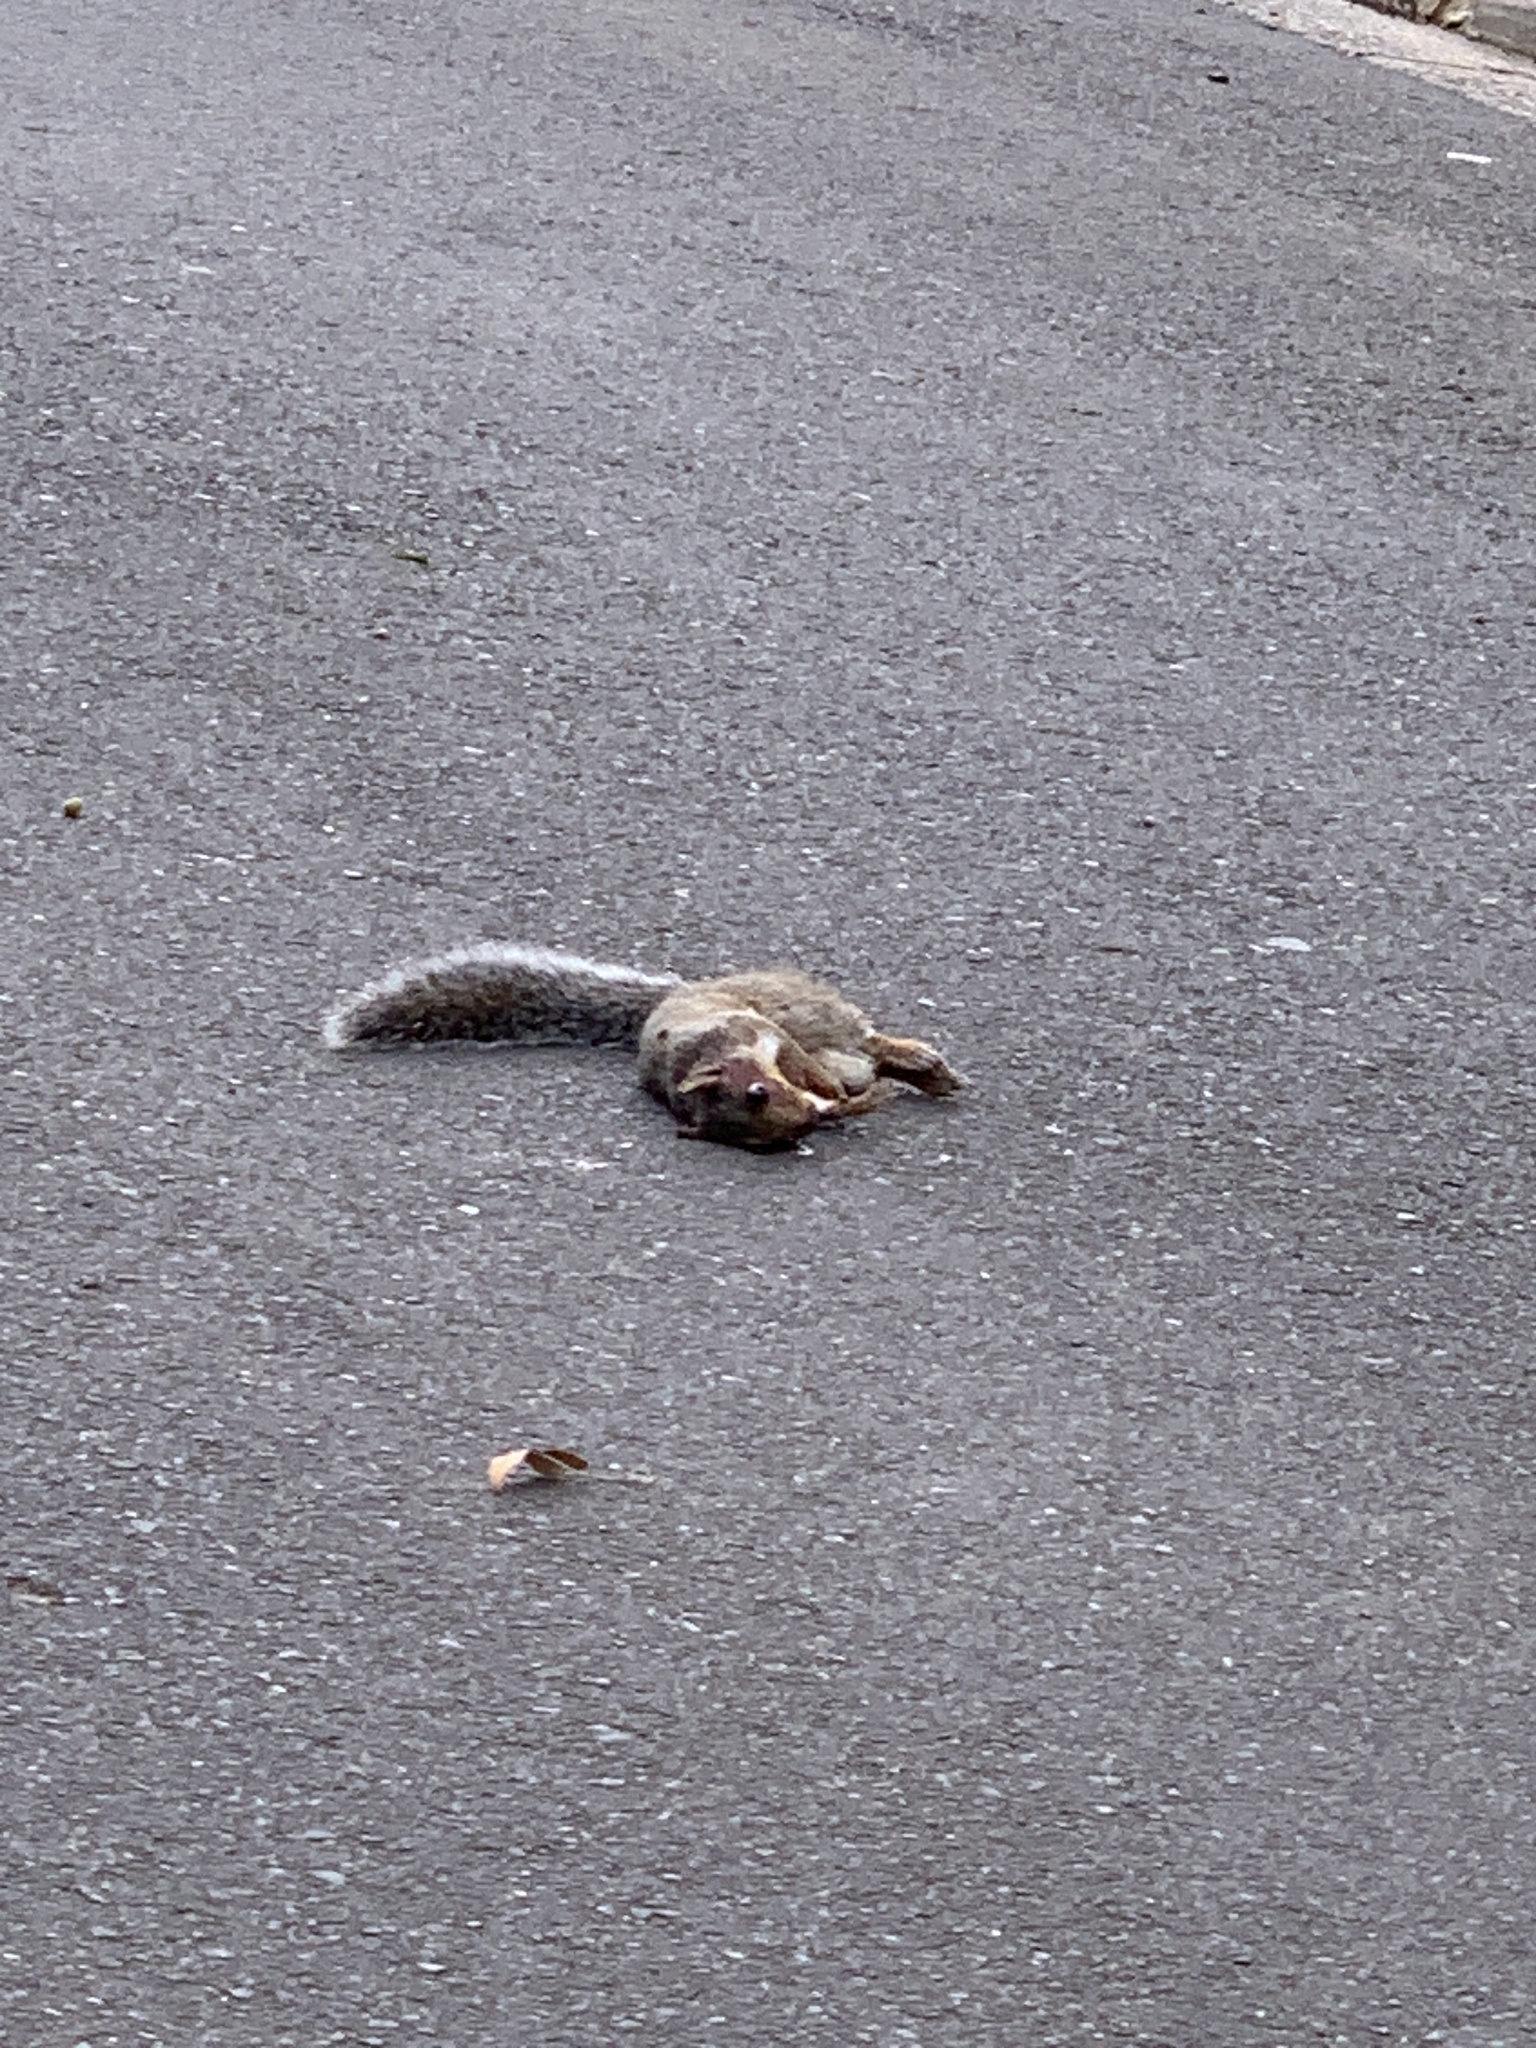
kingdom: Animalia
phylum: Chordata
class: Mammalia
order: Rodentia
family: Sciuridae
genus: Sciurus
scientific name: Sciurus carolinensis
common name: Eastern gray squirrel
